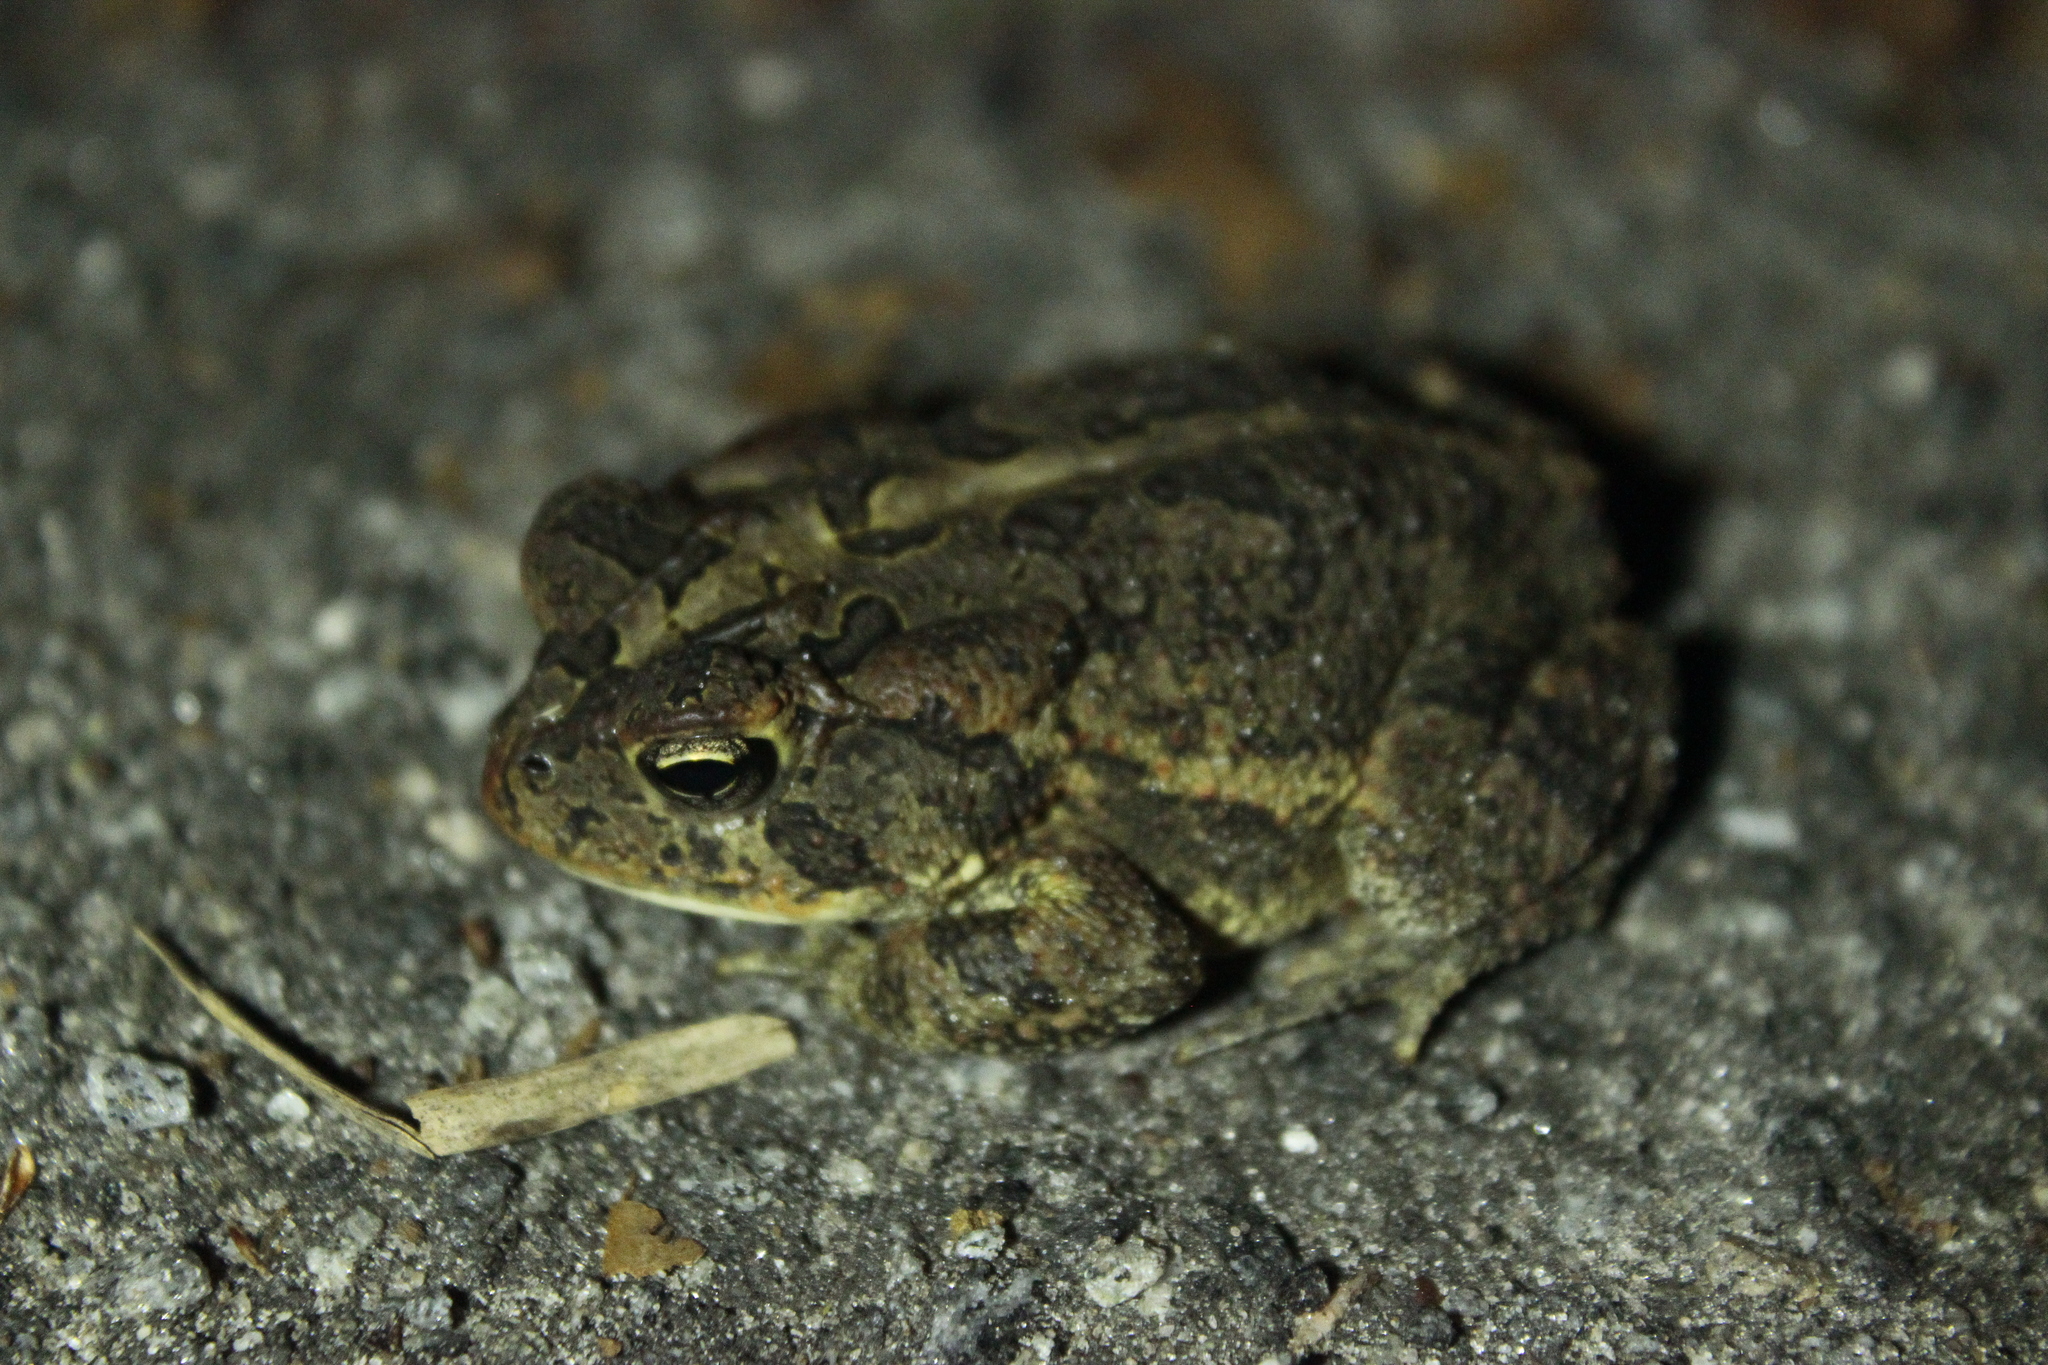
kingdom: Animalia
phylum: Chordata
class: Amphibia
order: Anura
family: Bufonidae
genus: Anaxyrus
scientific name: Anaxyrus terrestris
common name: Southern toad
